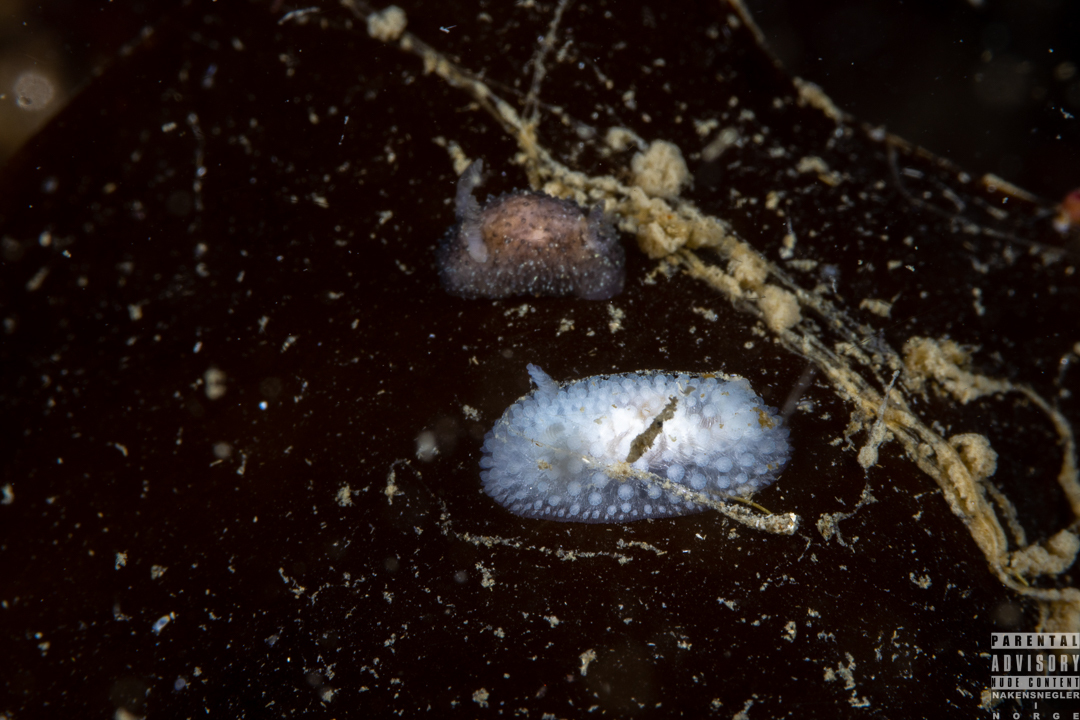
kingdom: Animalia
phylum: Mollusca
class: Gastropoda
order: Nudibranchia
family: Onchidorididae
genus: Onchidoris
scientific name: Onchidoris muricata
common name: Rough doris
